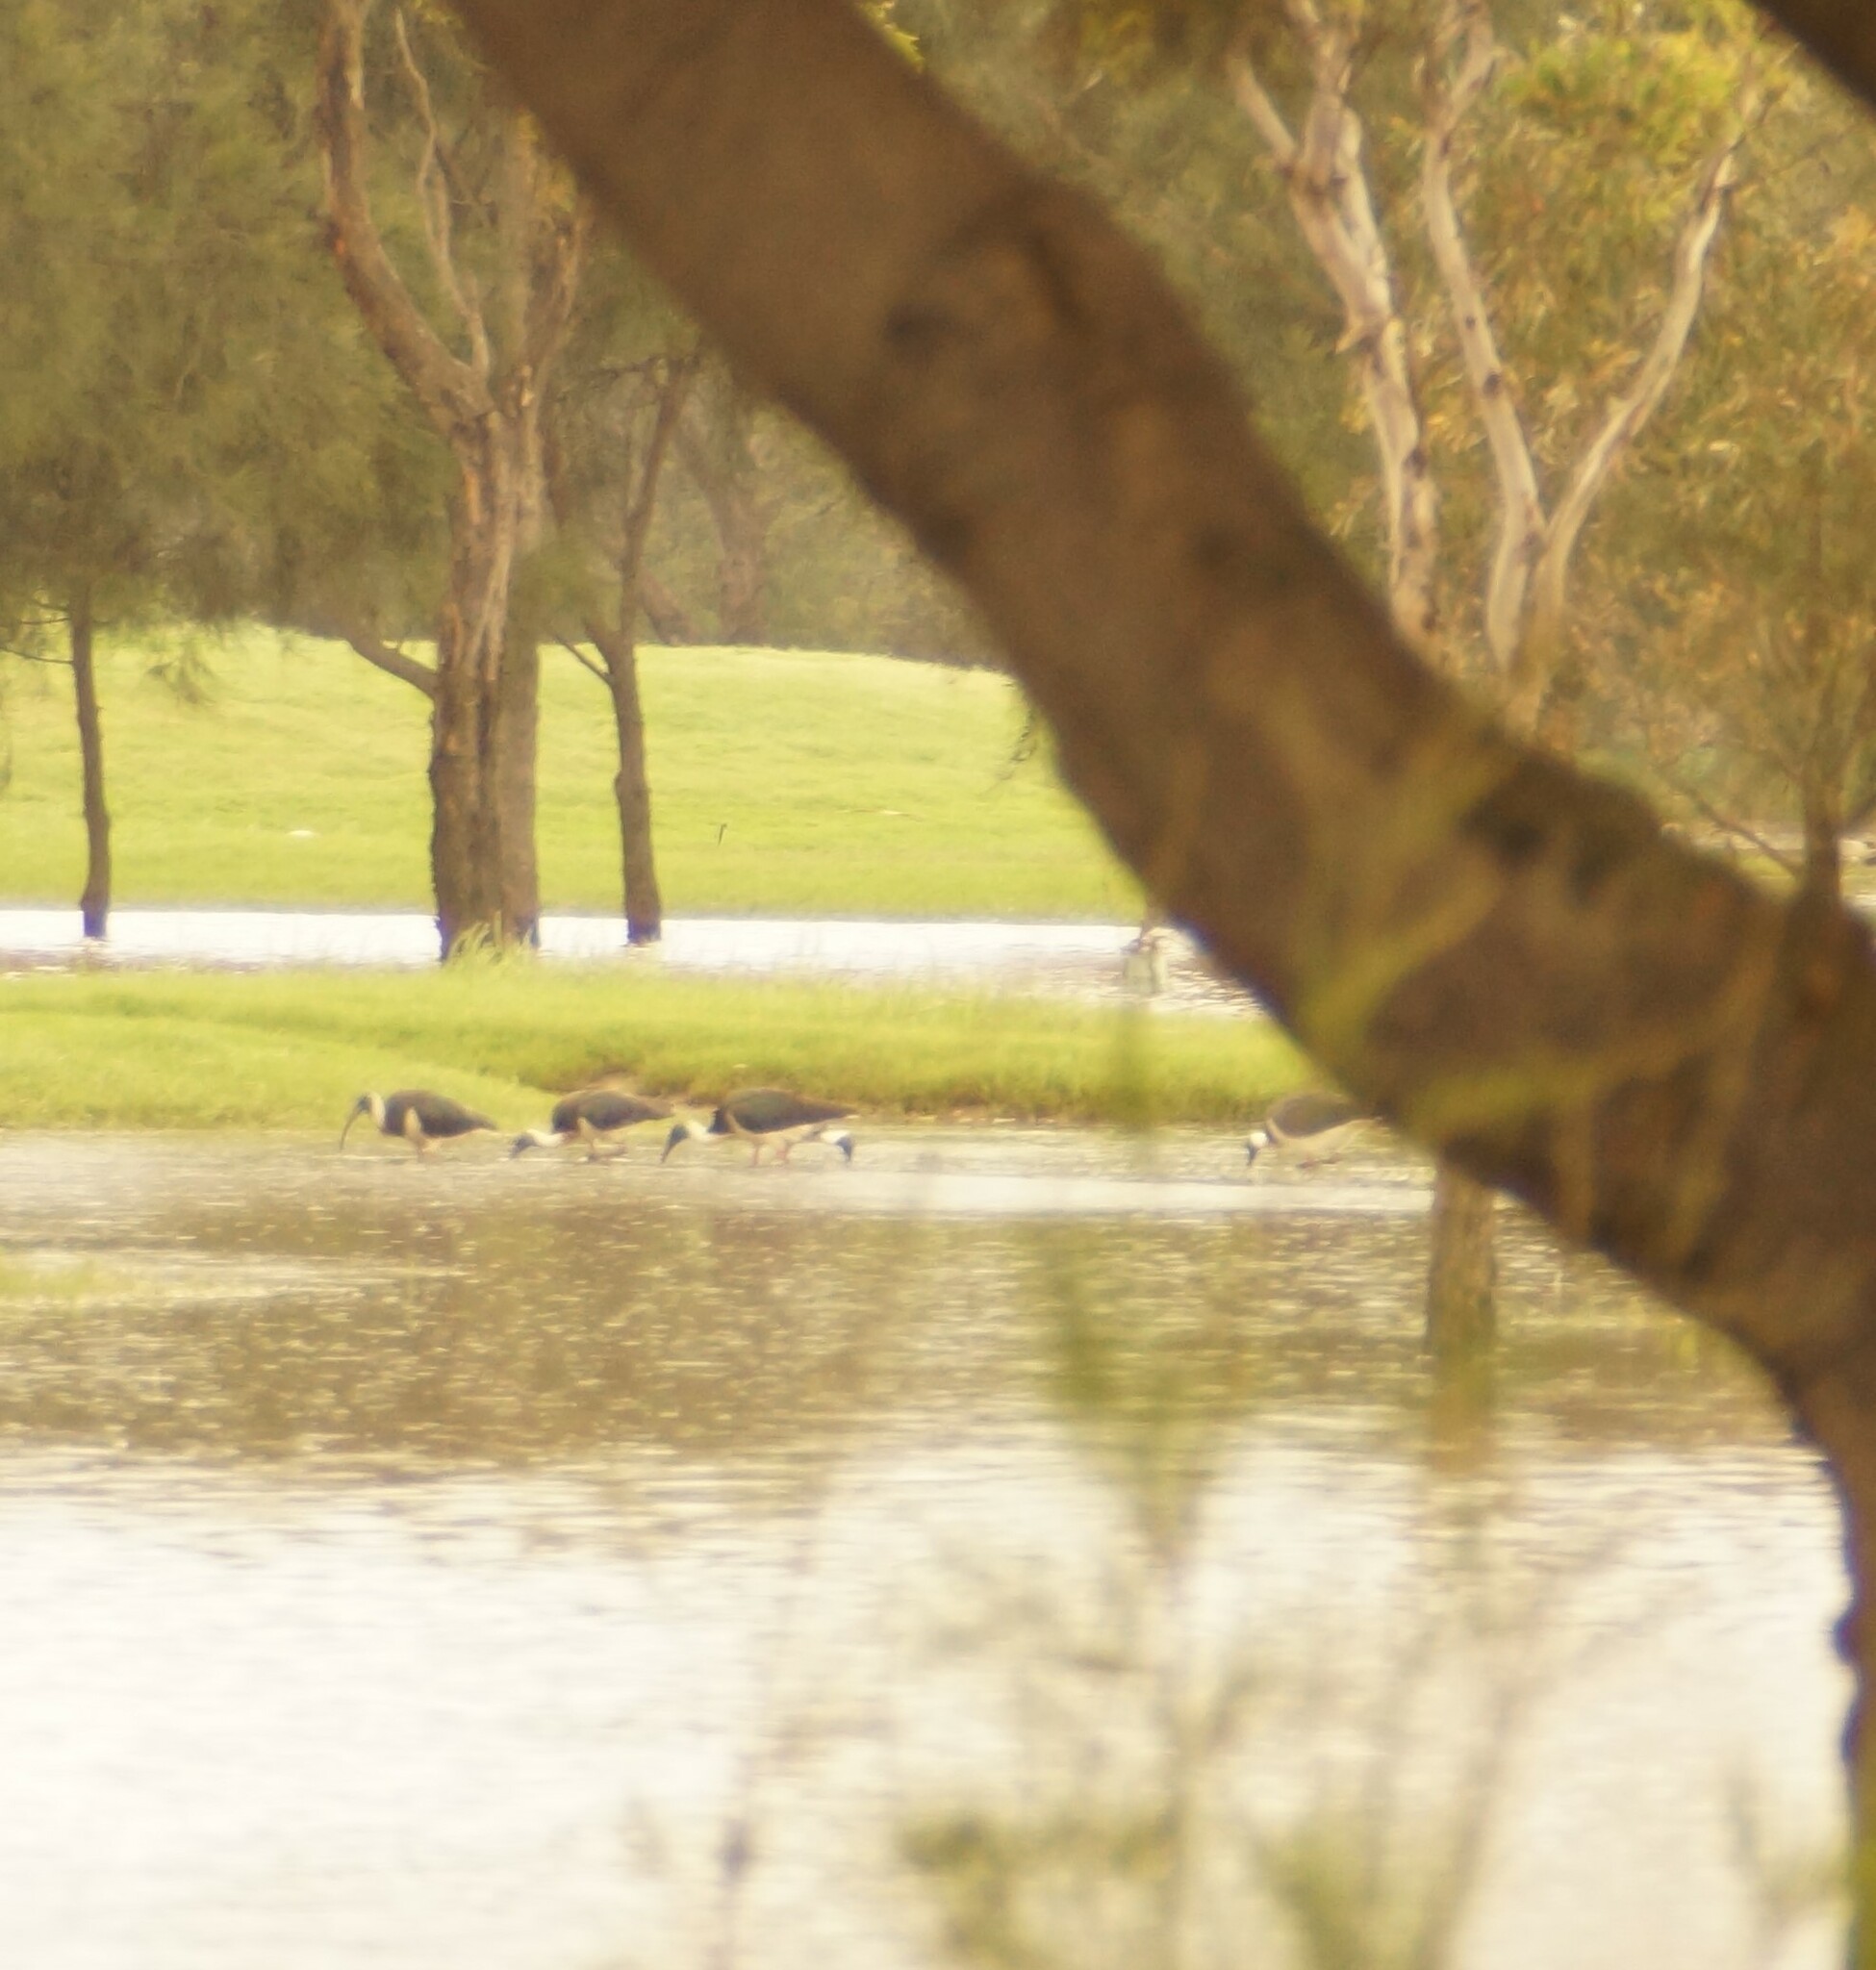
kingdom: Animalia
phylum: Chordata
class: Aves
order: Pelecaniformes
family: Threskiornithidae
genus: Threskiornis
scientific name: Threskiornis spinicollis
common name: Straw-necked ibis
